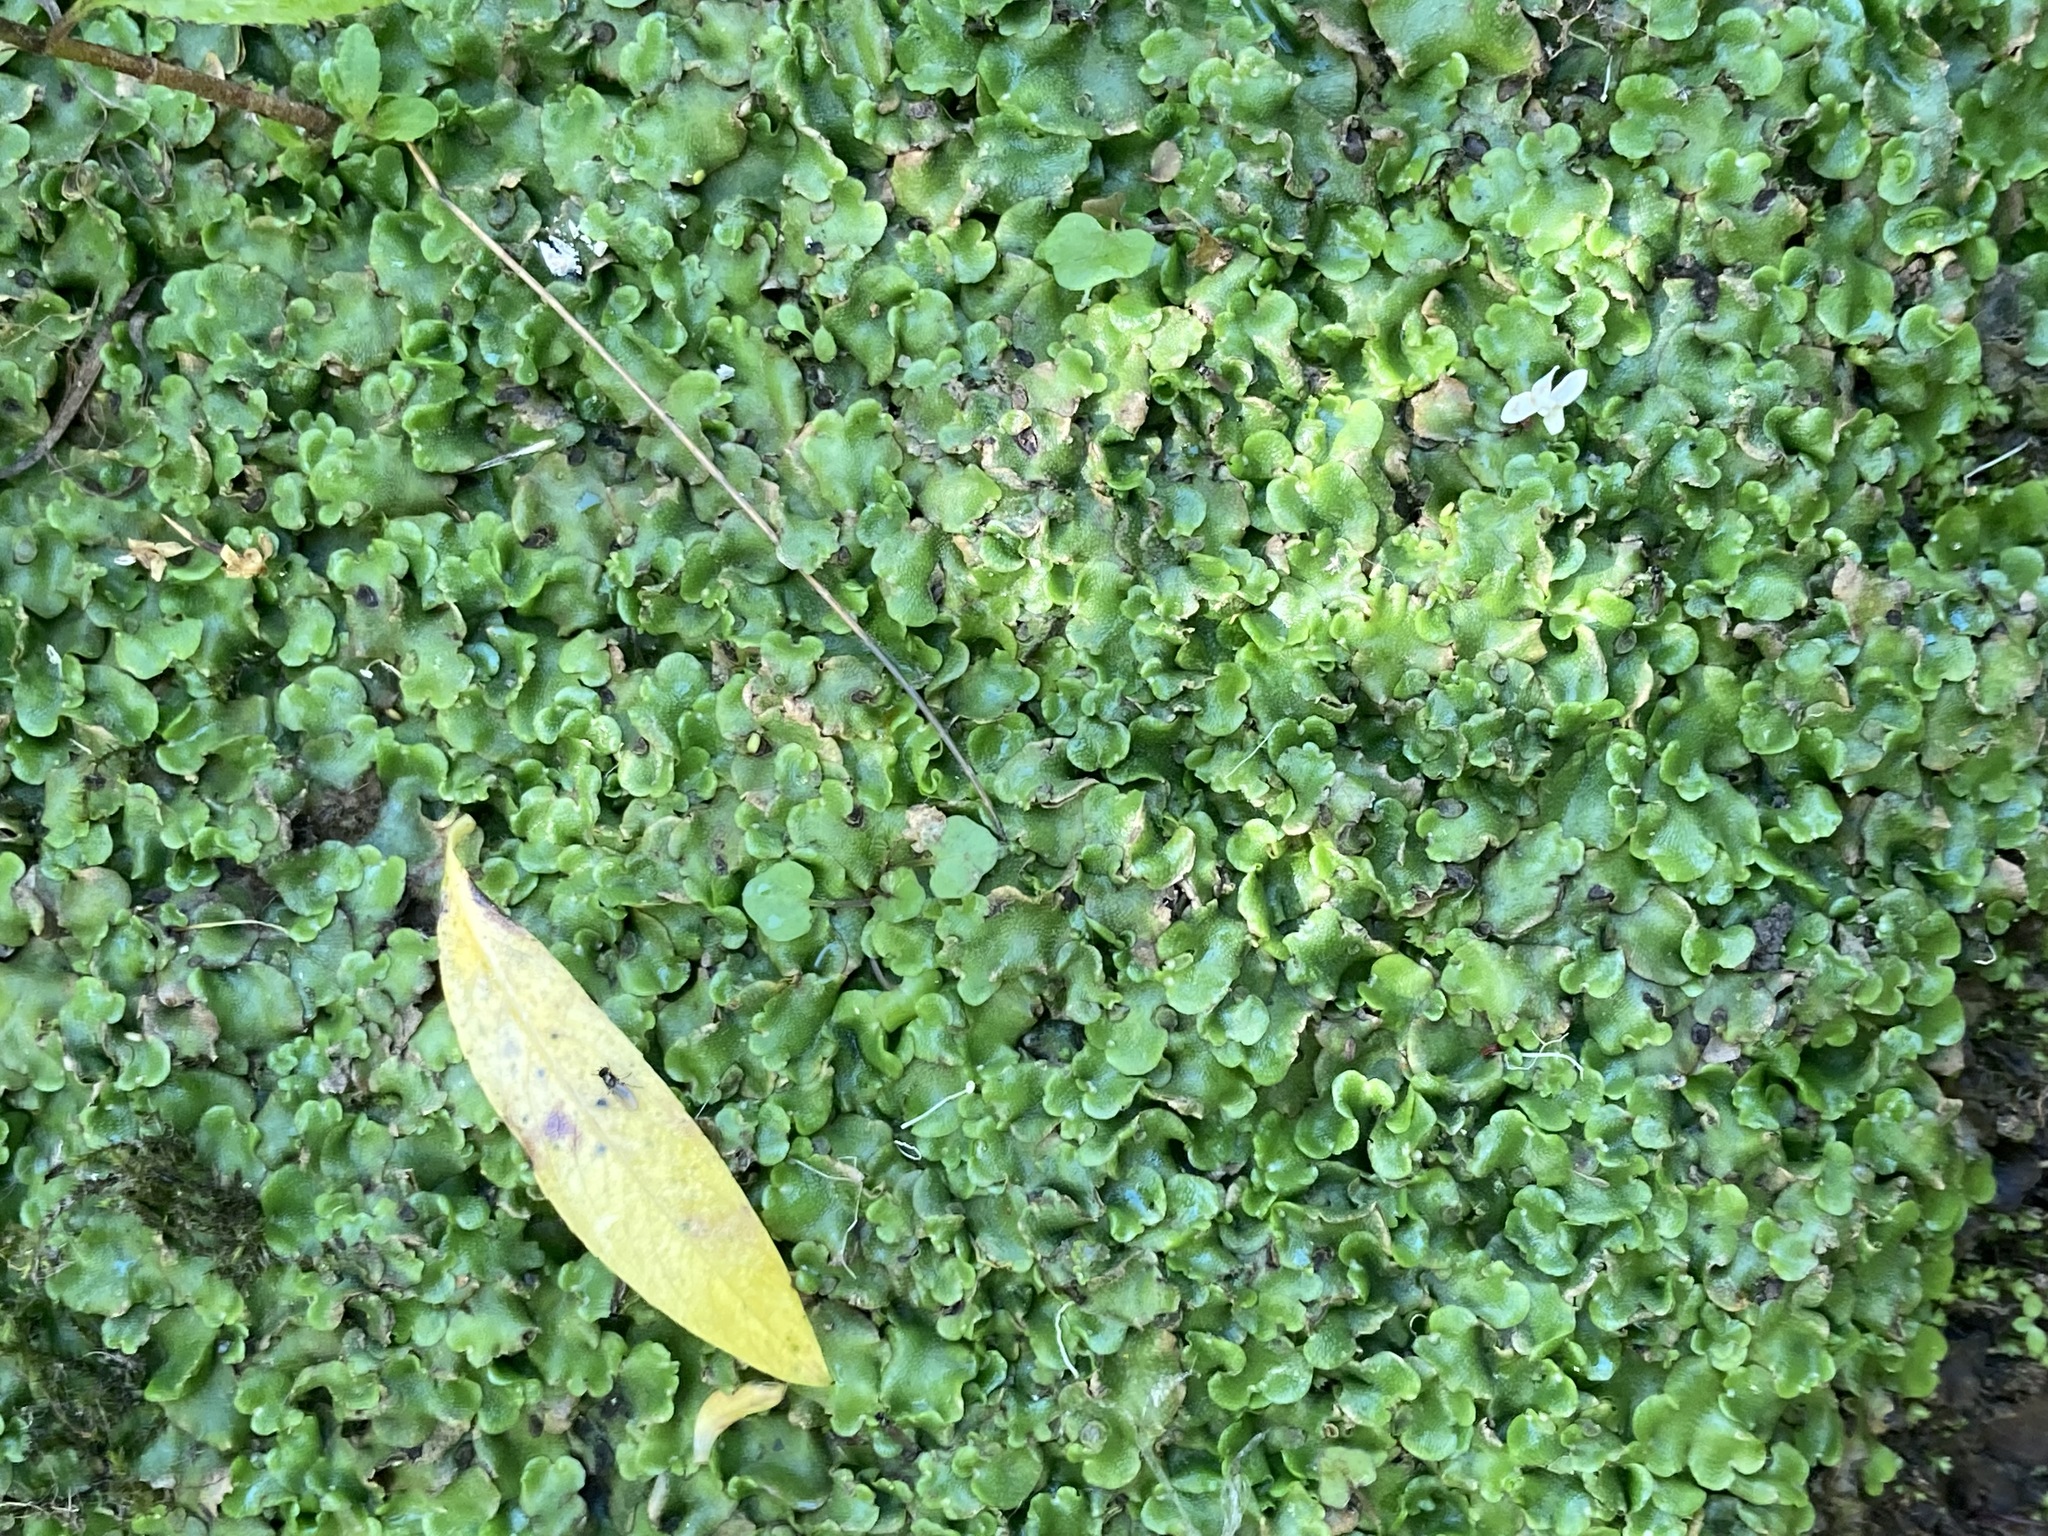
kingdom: Plantae
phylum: Marchantiophyta
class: Marchantiopsida
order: Lunulariales
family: Lunulariaceae
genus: Lunularia
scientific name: Lunularia cruciata
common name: Crescent-cup liverwort
